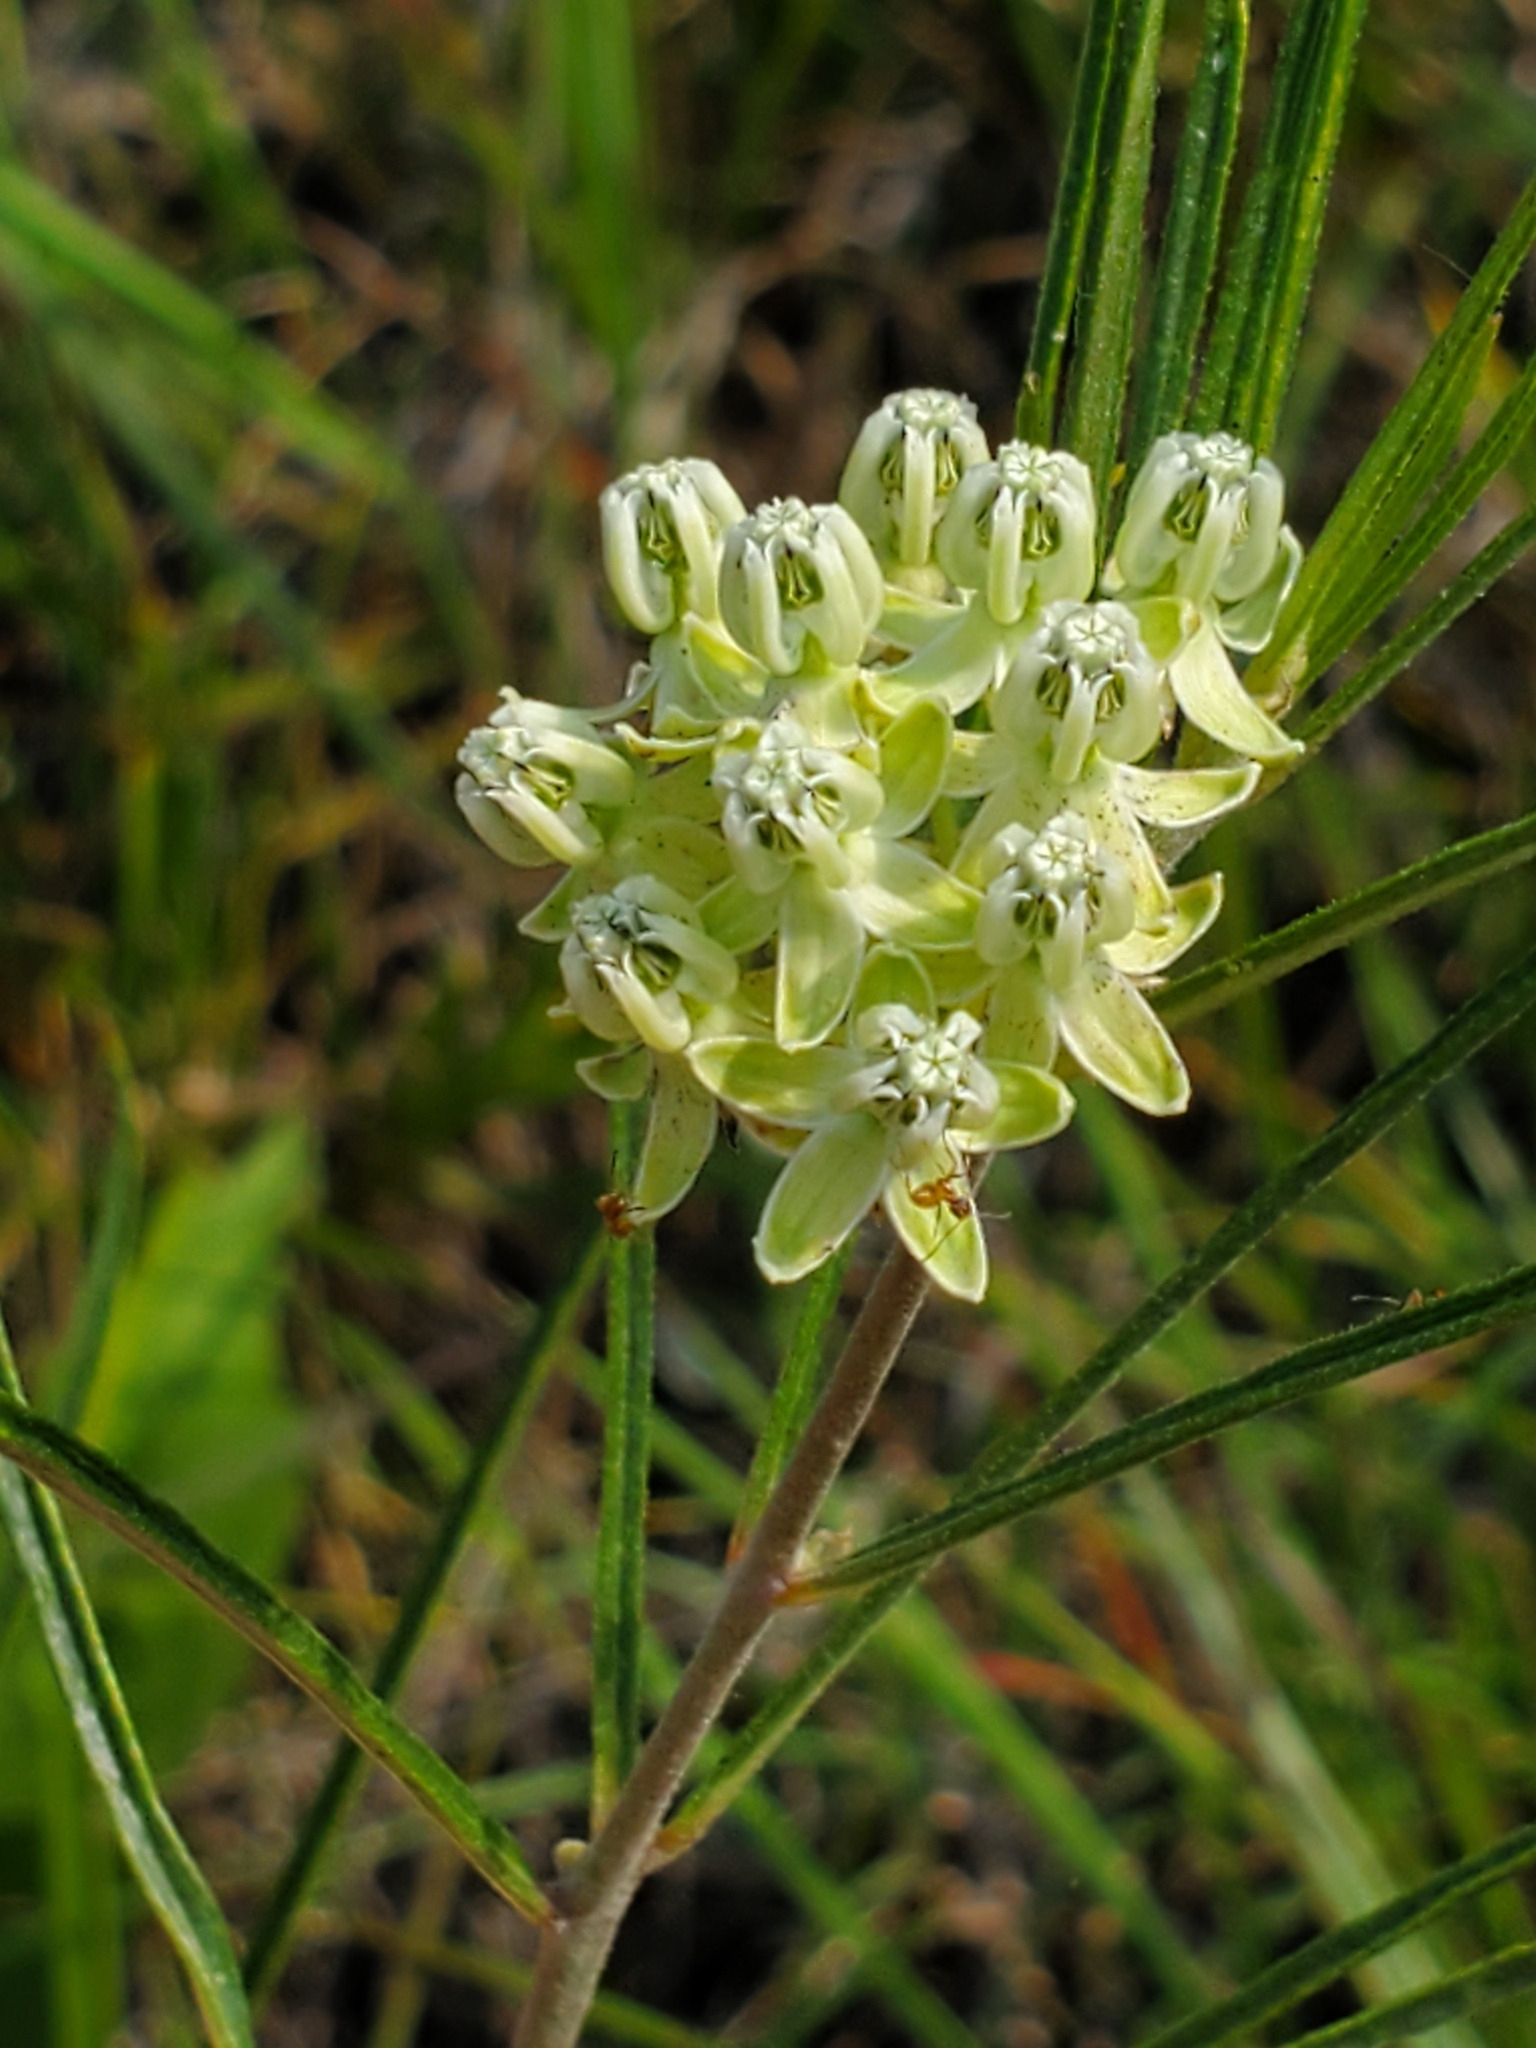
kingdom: Plantae
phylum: Tracheophyta
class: Magnoliopsida
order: Gentianales
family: Apocynaceae
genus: Asclepias
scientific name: Asclepias stenophylla
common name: Narrow-leaf milkweed
